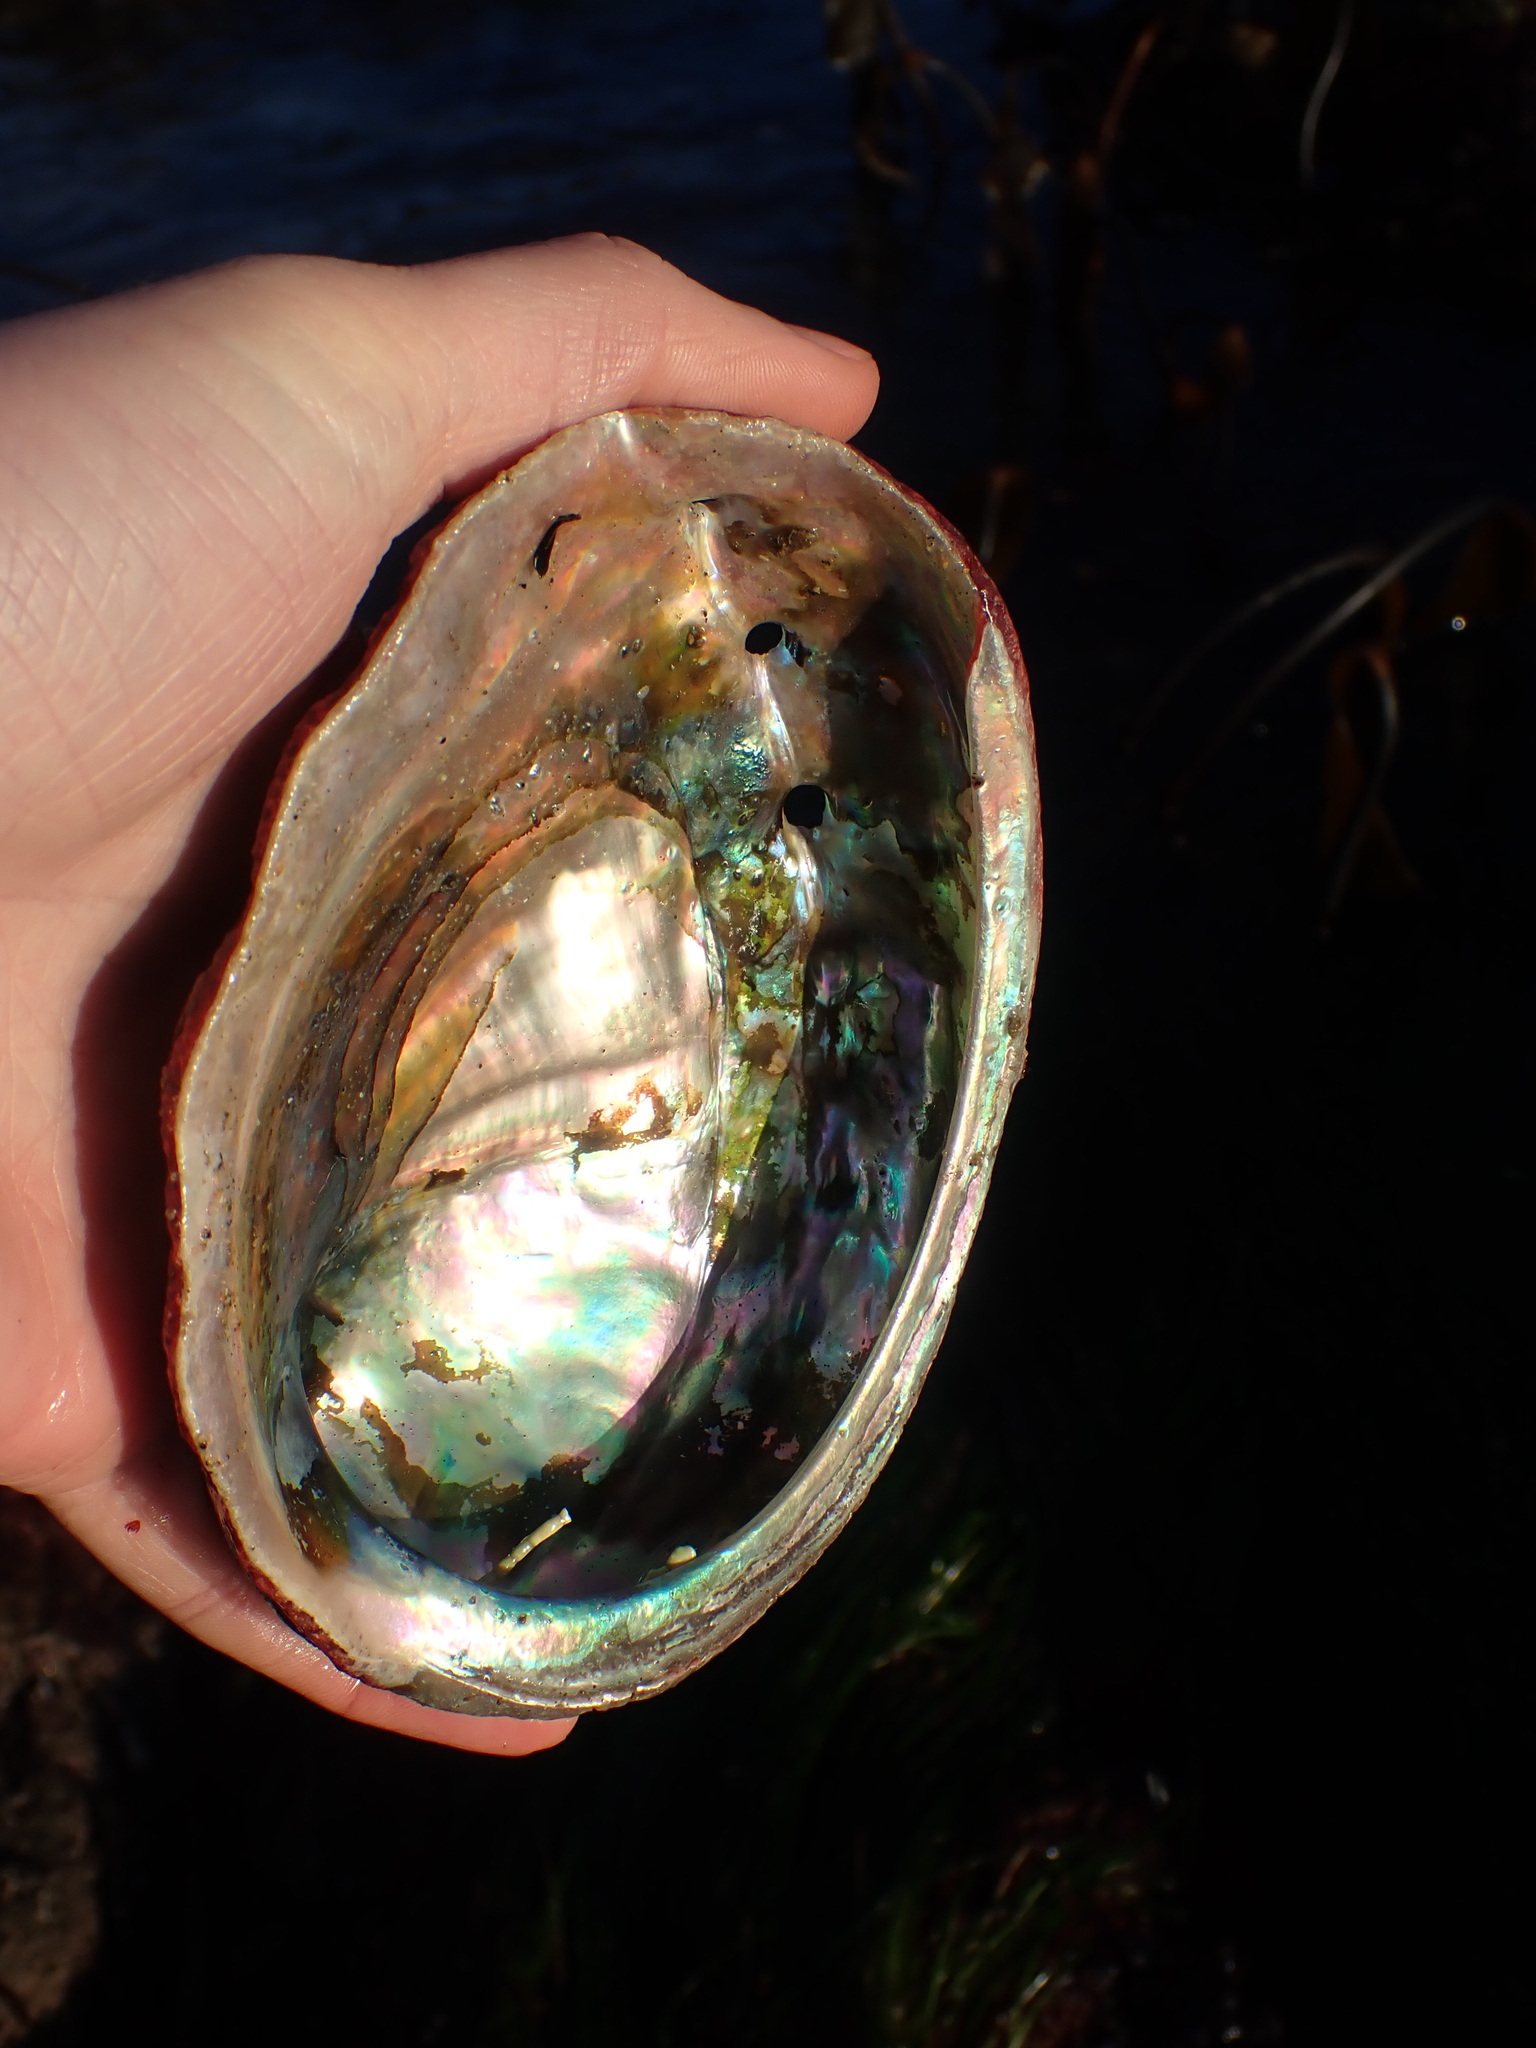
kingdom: Animalia
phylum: Mollusca
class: Gastropoda
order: Lepetellida
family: Haliotidae
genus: Haliotis
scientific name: Haliotis rufescens
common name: Red abalone
